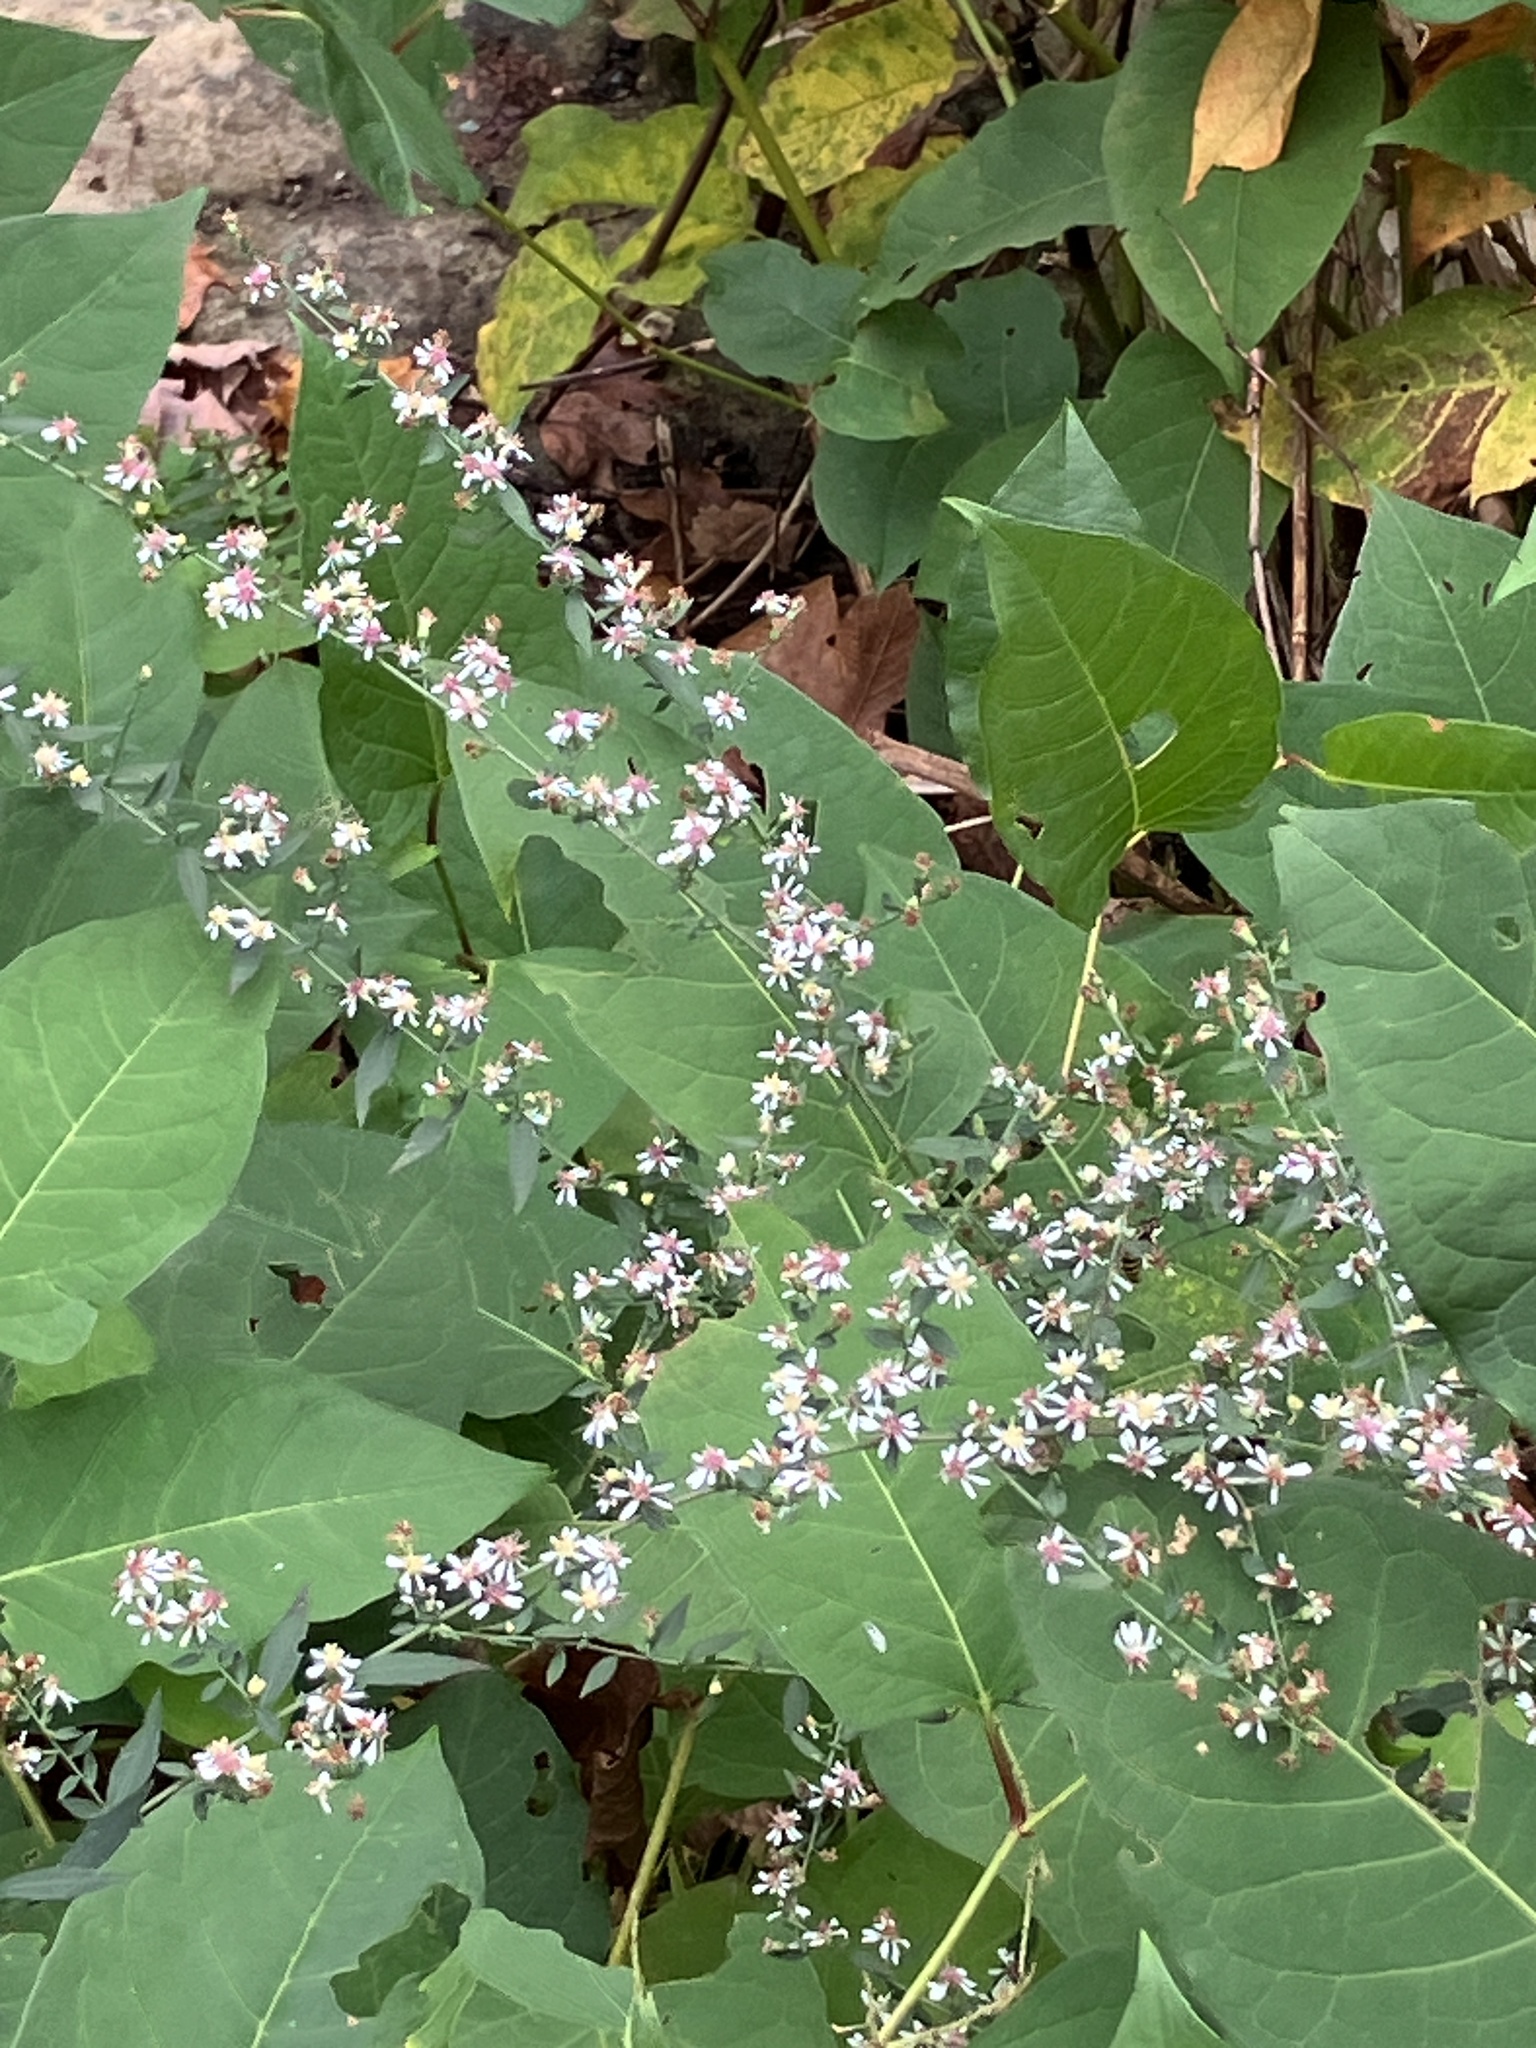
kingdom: Plantae
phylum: Tracheophyta
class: Magnoliopsida
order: Asterales
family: Asteraceae
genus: Symphyotrichum
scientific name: Symphyotrichum lateriflorum
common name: Calico aster
